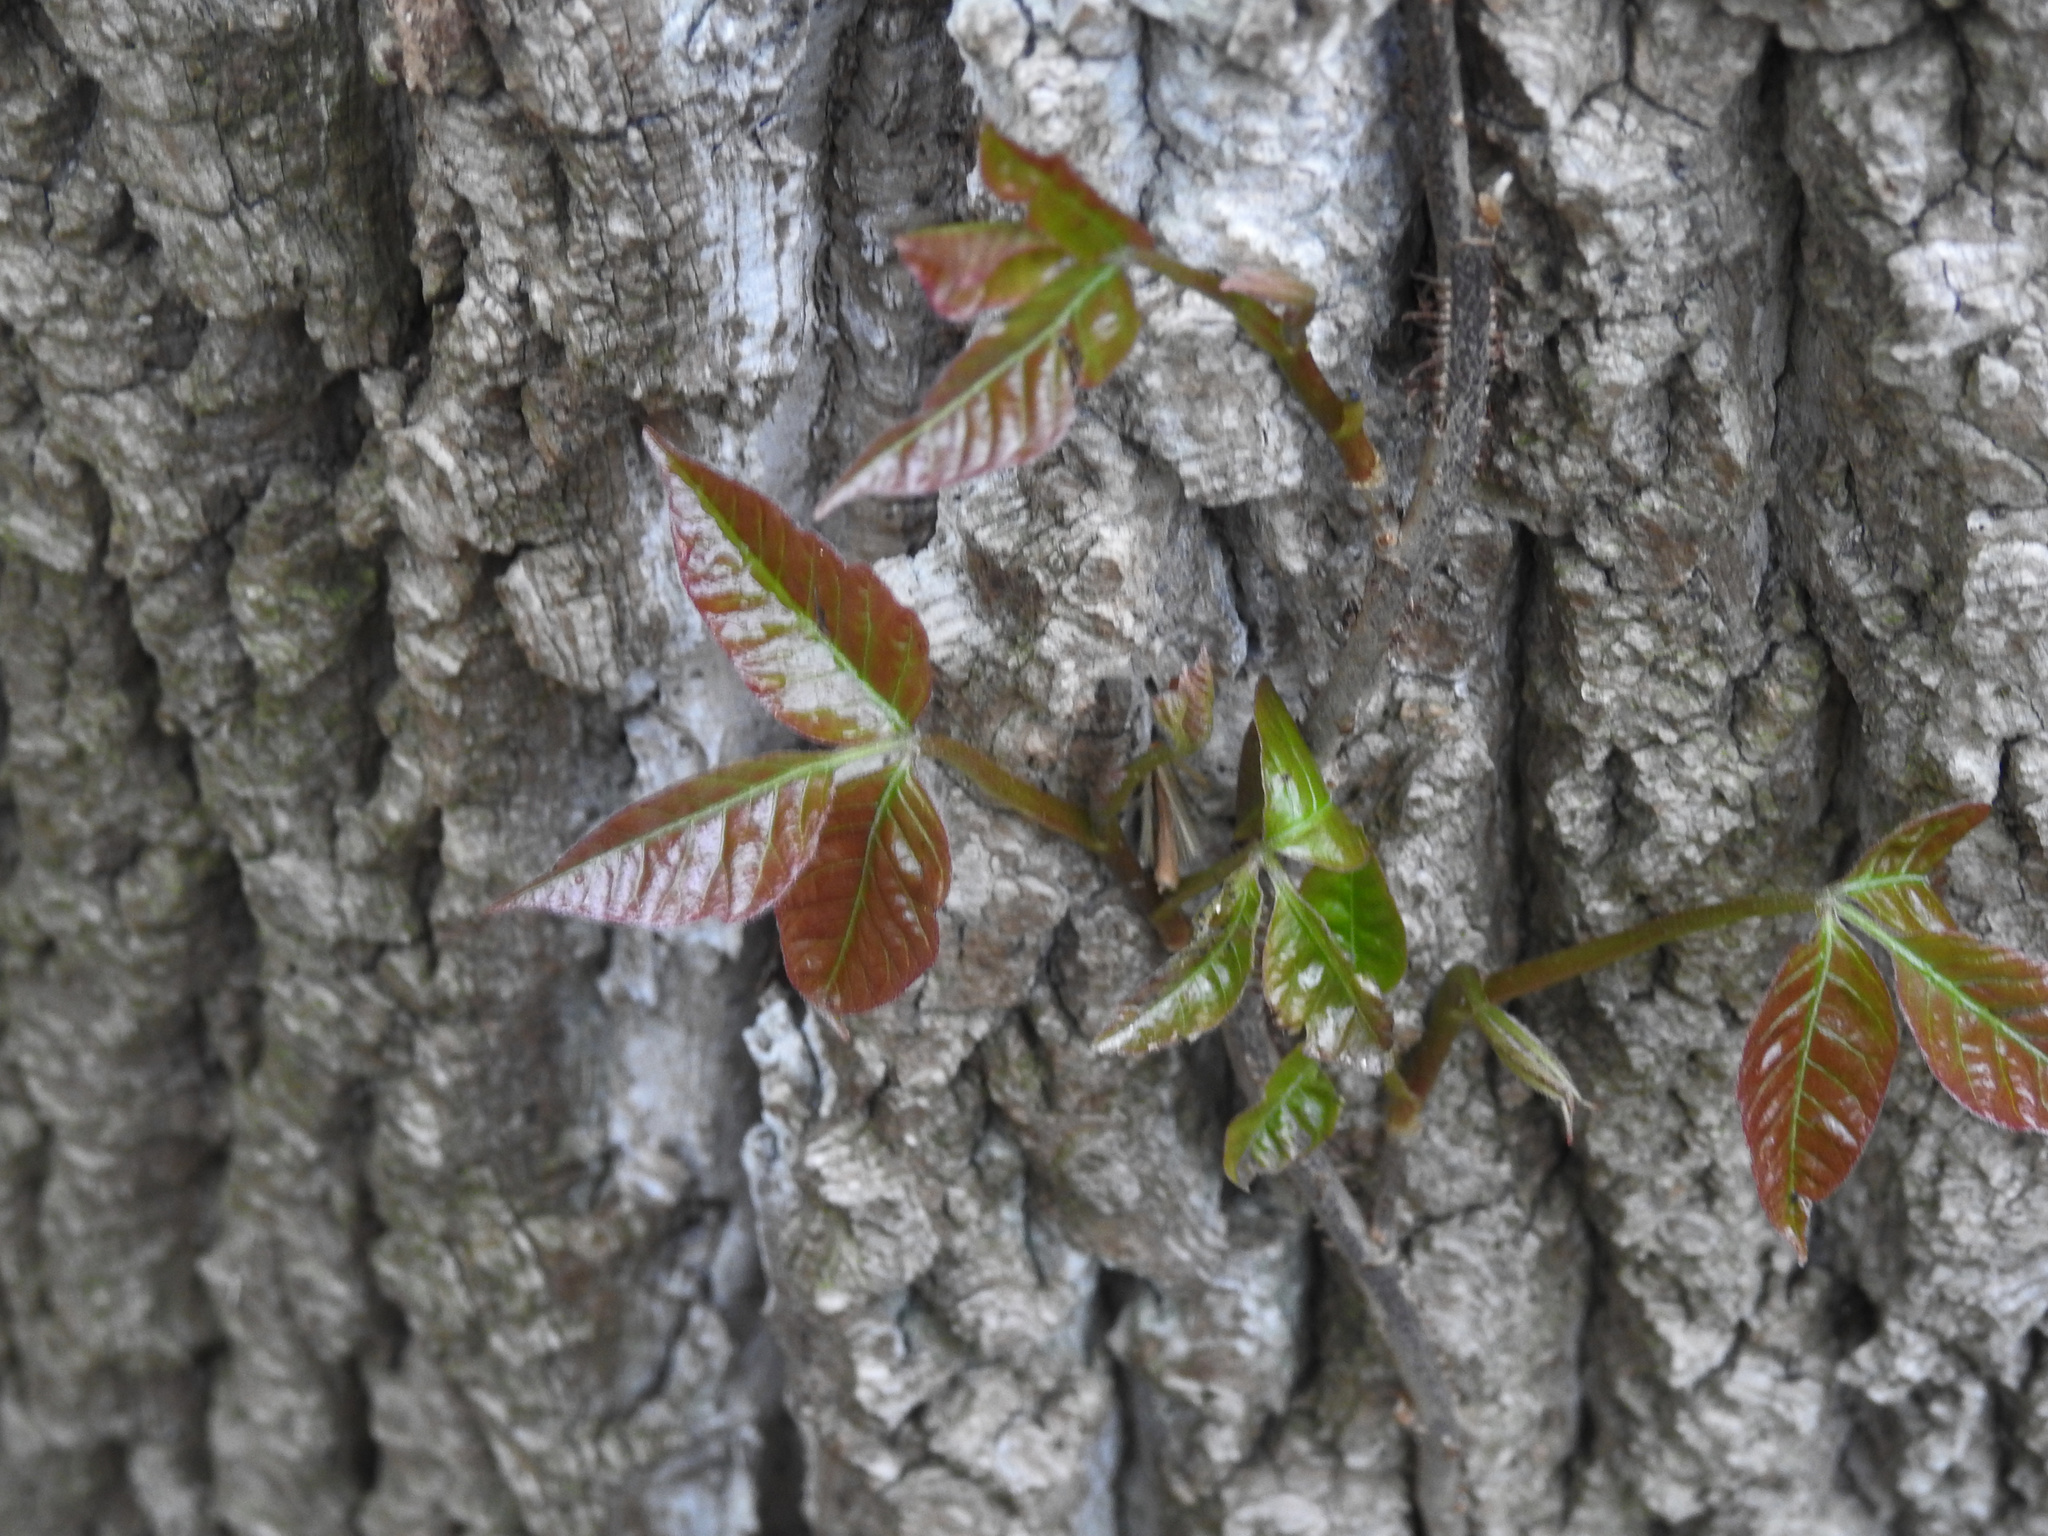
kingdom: Plantae
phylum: Tracheophyta
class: Magnoliopsida
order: Sapindales
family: Anacardiaceae
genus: Toxicodendron
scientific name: Toxicodendron radicans
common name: Poison ivy
